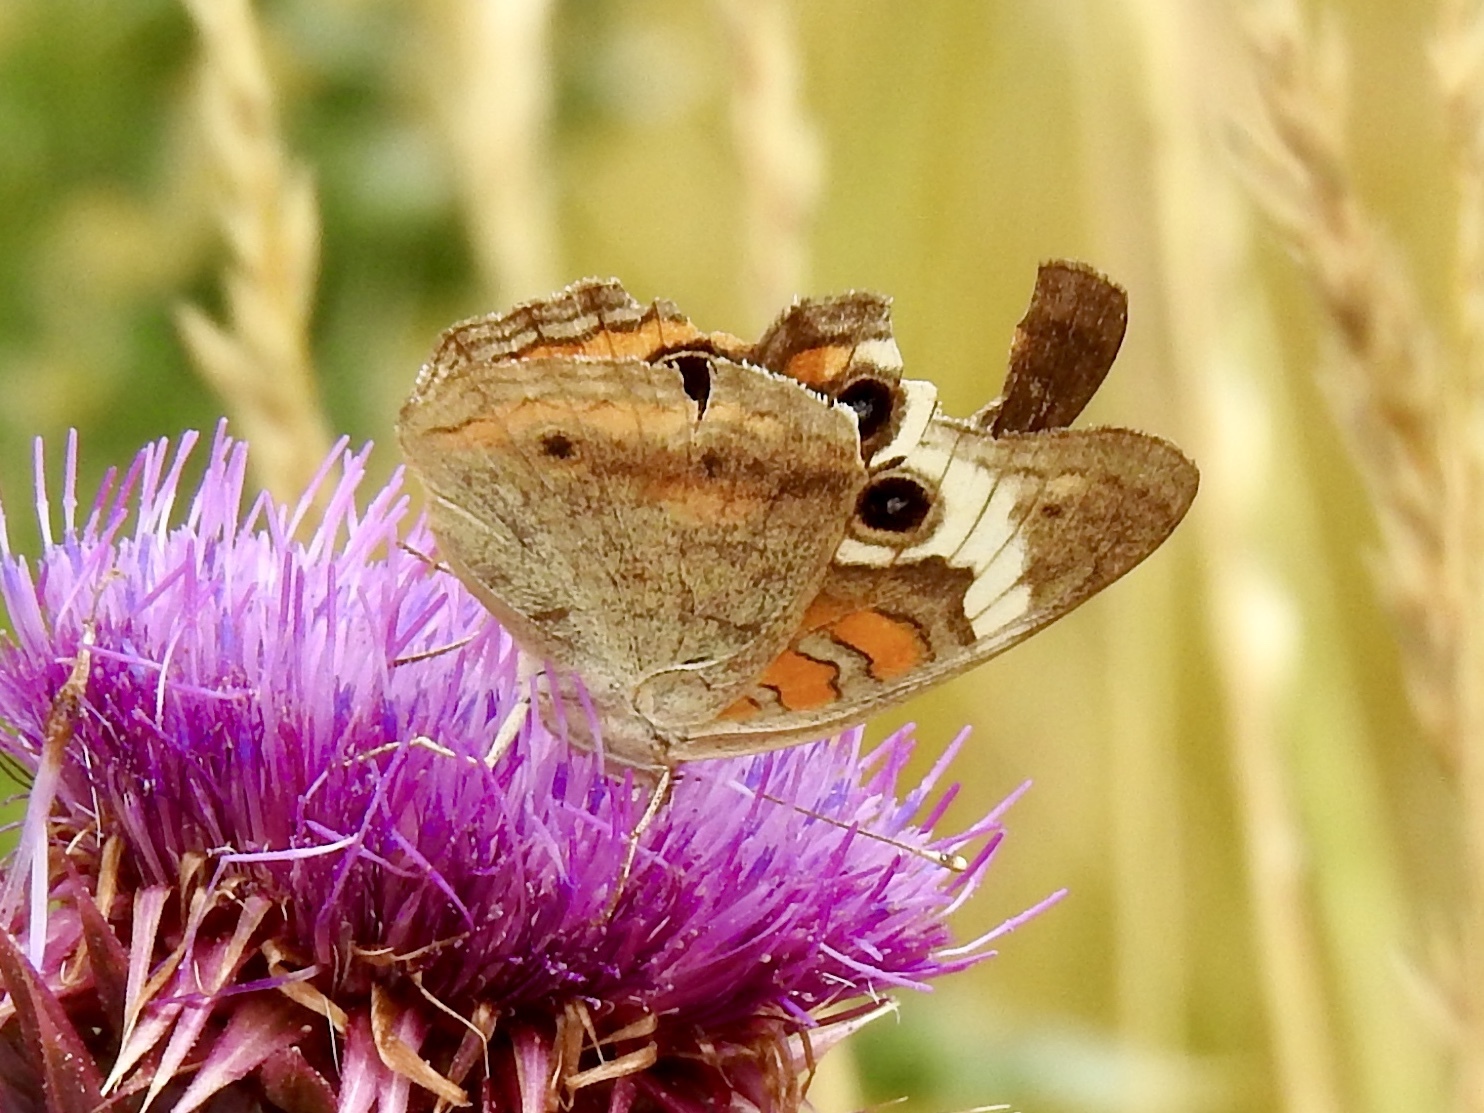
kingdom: Animalia
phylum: Arthropoda
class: Insecta
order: Lepidoptera
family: Nymphalidae
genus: Junonia
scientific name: Junonia grisea
